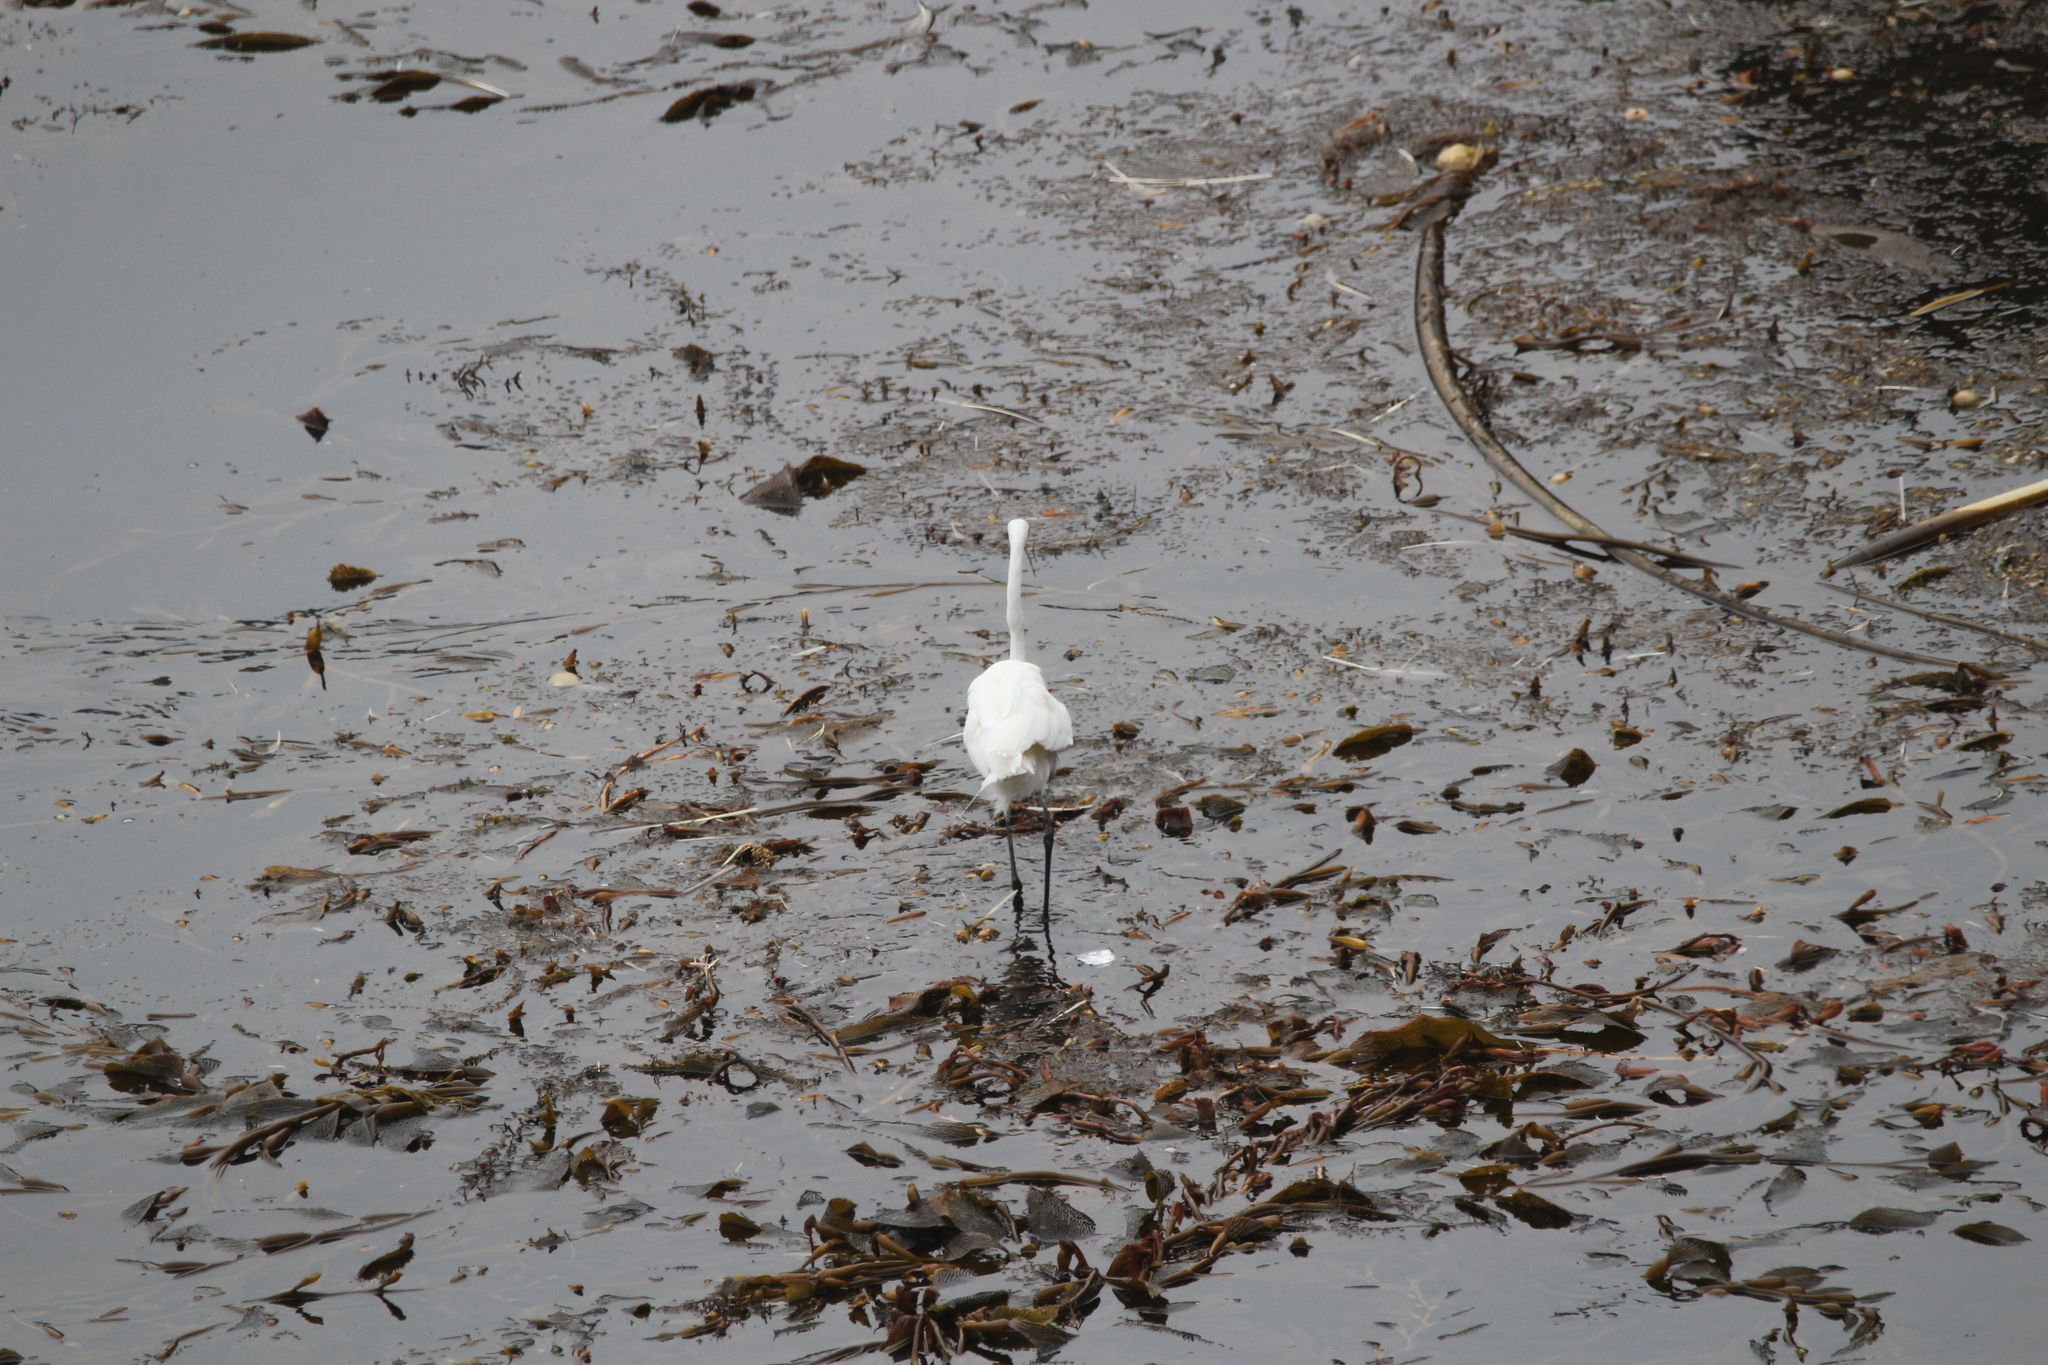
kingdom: Animalia
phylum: Chordata
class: Aves
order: Pelecaniformes
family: Ardeidae
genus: Ardea
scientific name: Ardea alba
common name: Great egret
